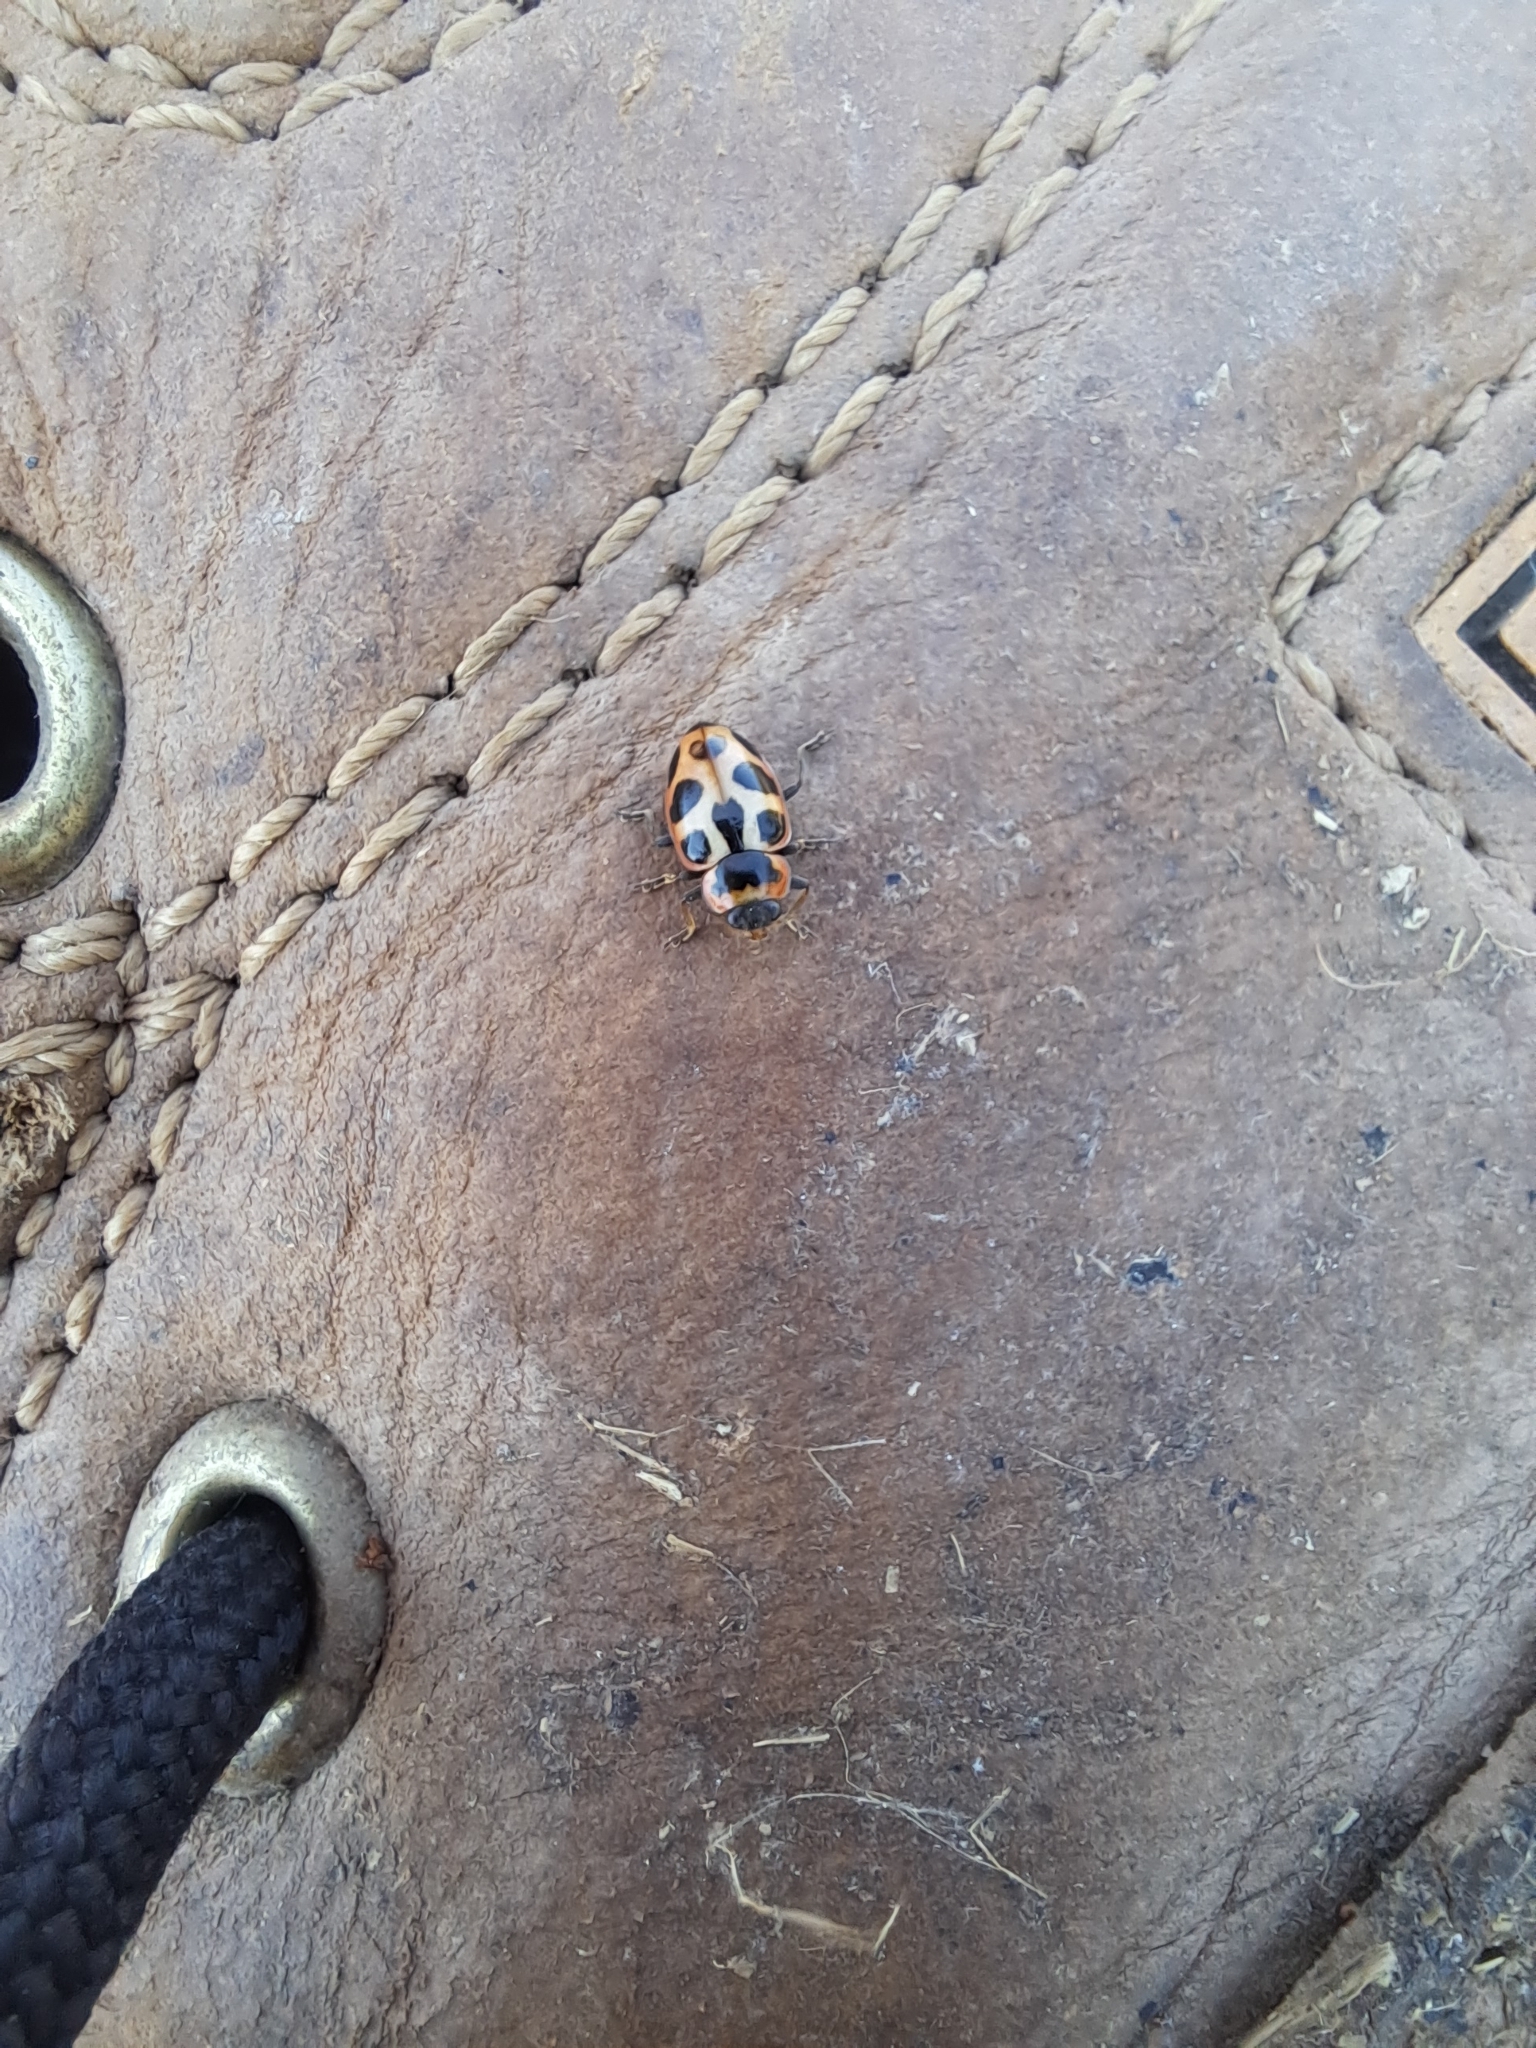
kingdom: Animalia
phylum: Arthropoda
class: Insecta
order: Coleoptera
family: Coccinellidae
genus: Naemia
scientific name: Naemia seriata
